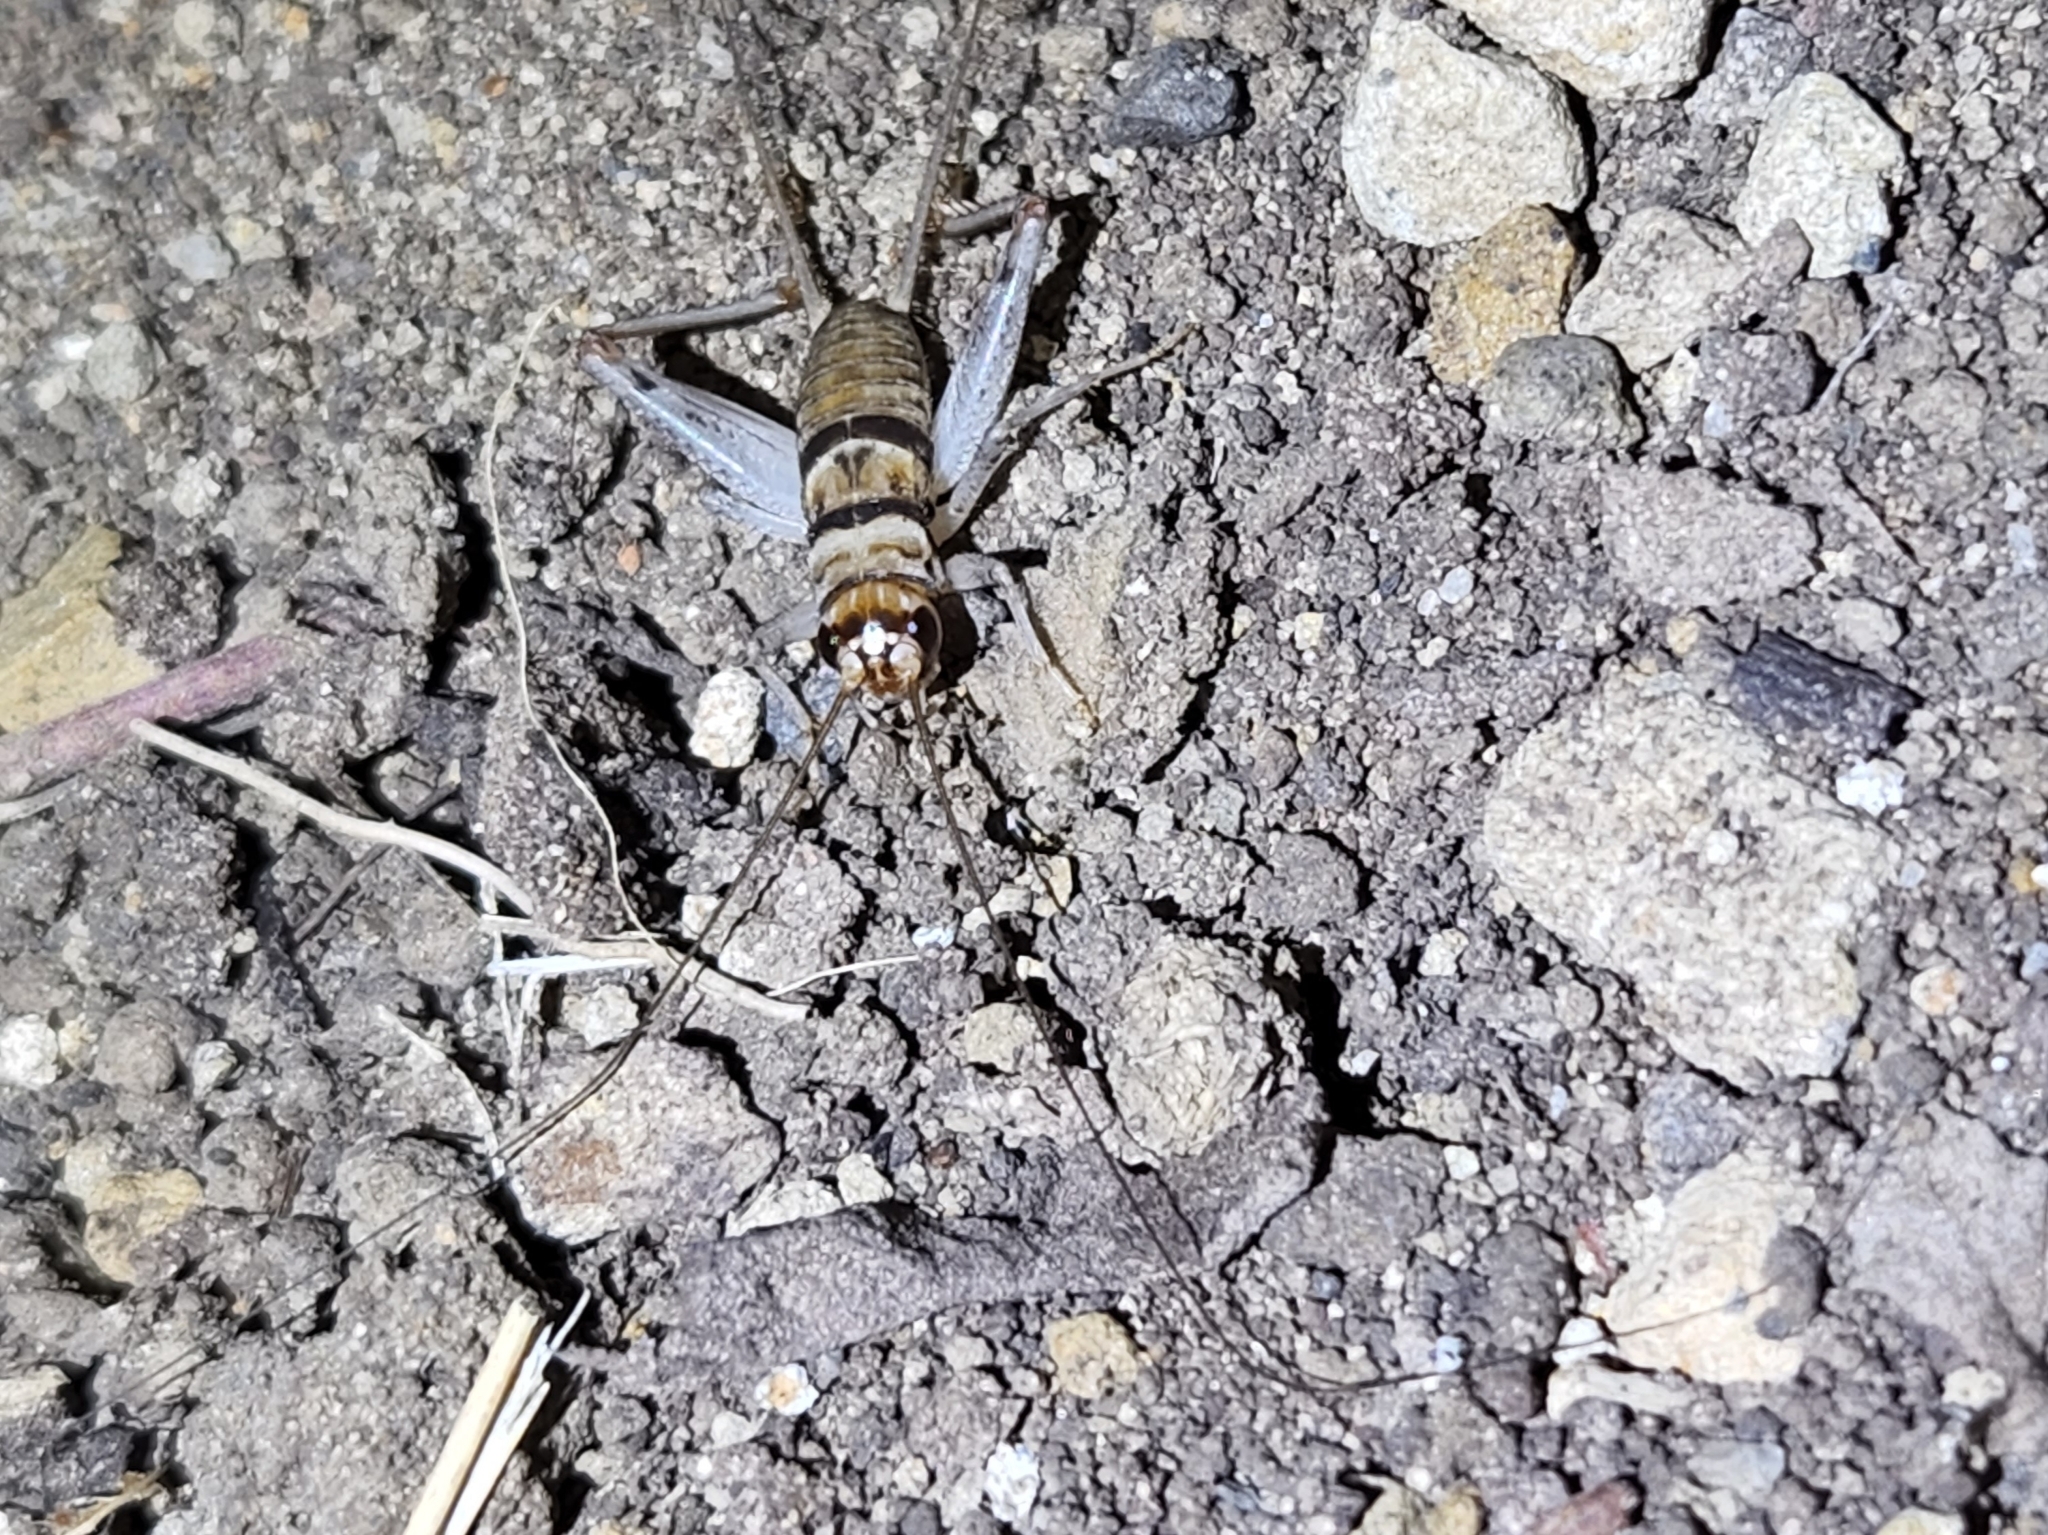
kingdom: Animalia
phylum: Arthropoda
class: Insecta
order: Orthoptera
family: Gryllidae
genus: Gryllodes
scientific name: Gryllodes sigillatus
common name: Tropical house cricket
